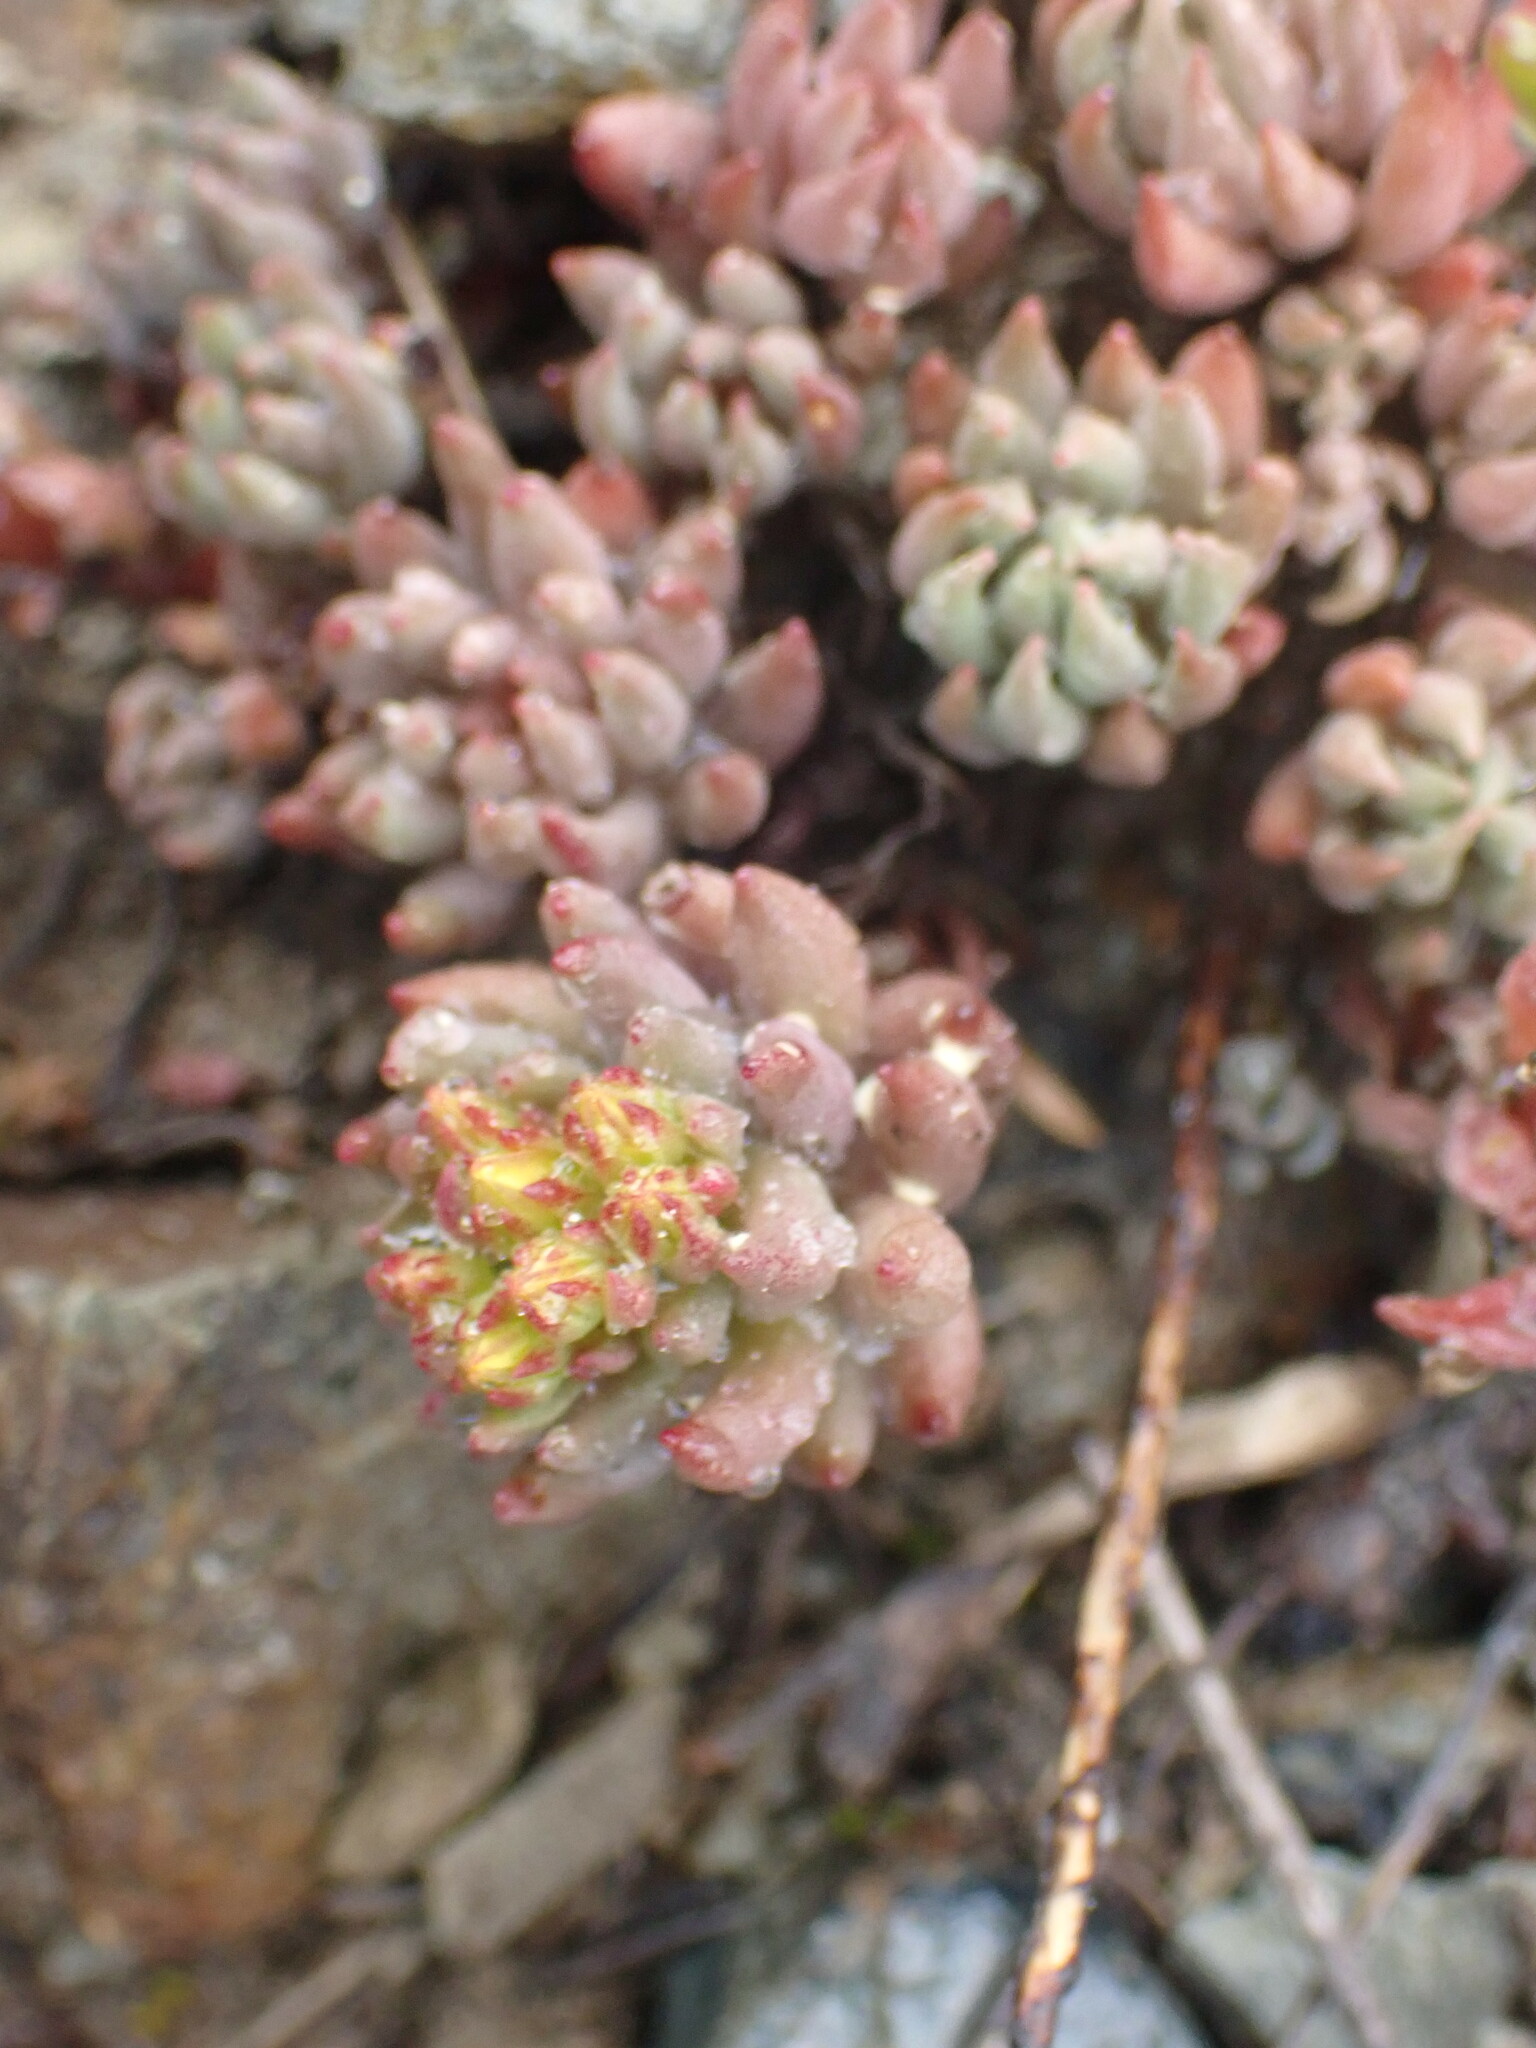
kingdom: Plantae
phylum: Tracheophyta
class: Magnoliopsida
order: Saxifragales
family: Crassulaceae
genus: Sedum
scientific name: Sedum lanceolatum
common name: Common stonecrop
